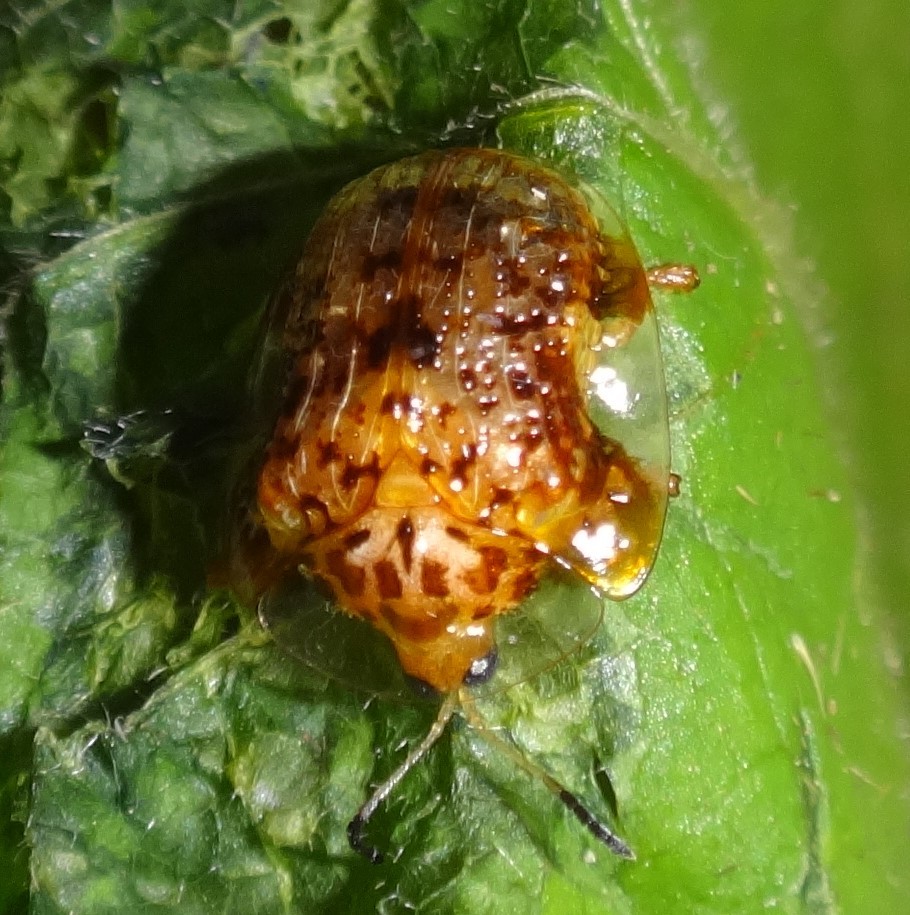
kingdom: Animalia
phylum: Arthropoda
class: Insecta
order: Coleoptera
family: Chrysomelidae
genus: Microctenochira
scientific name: Microctenochira hectica
